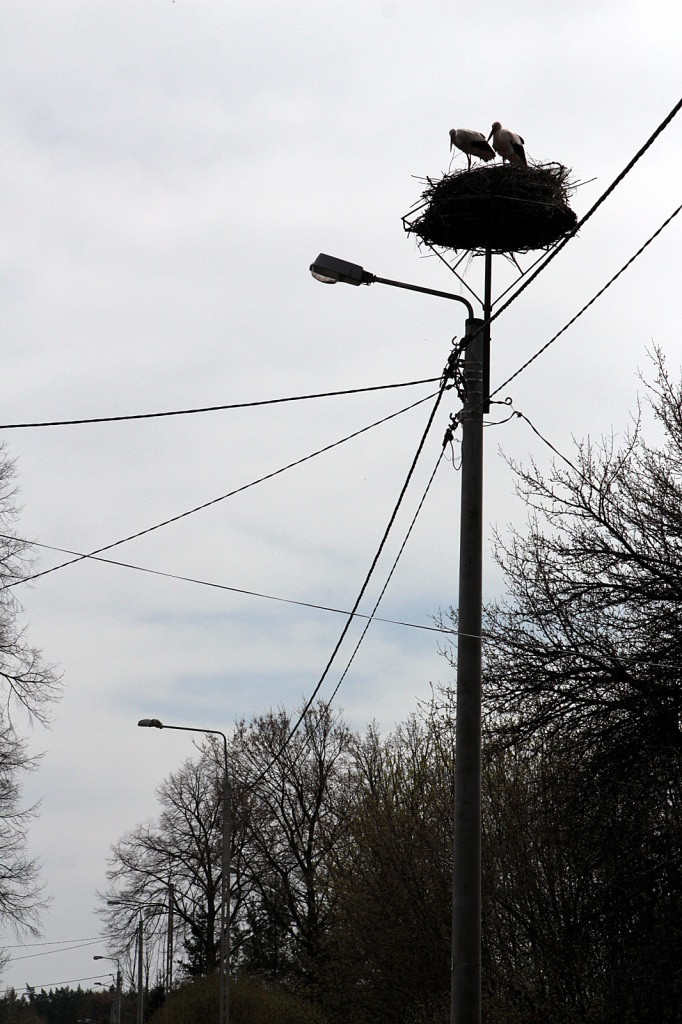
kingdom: Animalia
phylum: Chordata
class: Aves
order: Ciconiiformes
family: Ciconiidae
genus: Ciconia
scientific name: Ciconia ciconia
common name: White stork
